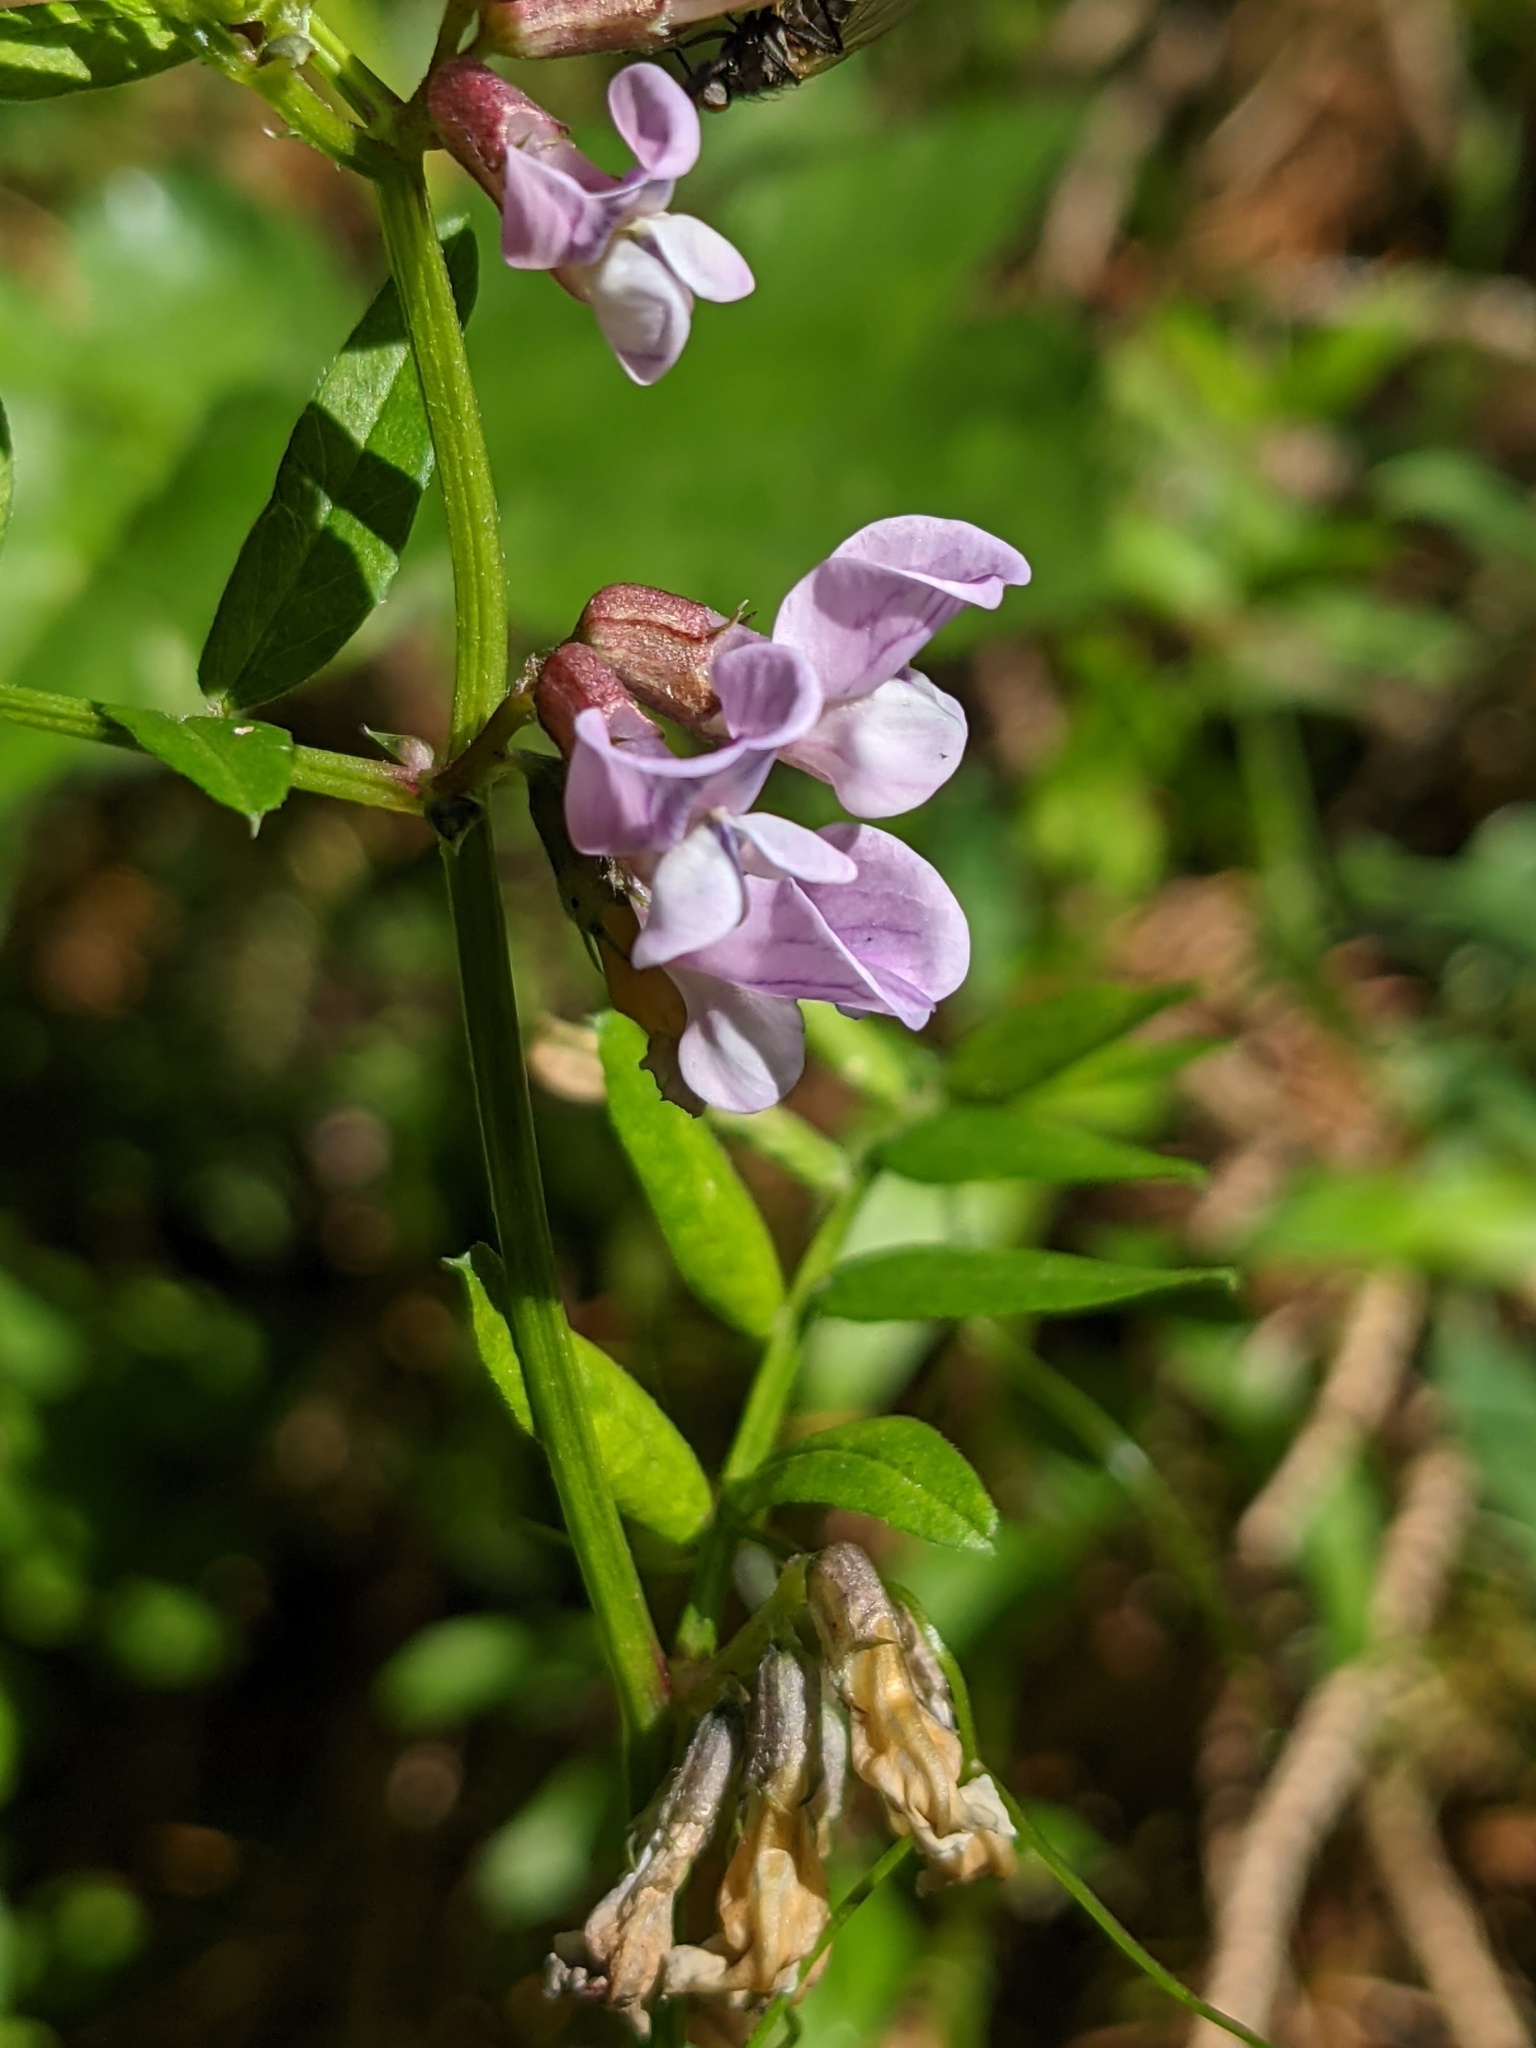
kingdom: Plantae
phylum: Tracheophyta
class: Magnoliopsida
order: Fabales
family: Fabaceae
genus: Vicia
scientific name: Vicia sepium
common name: Bush vetch
